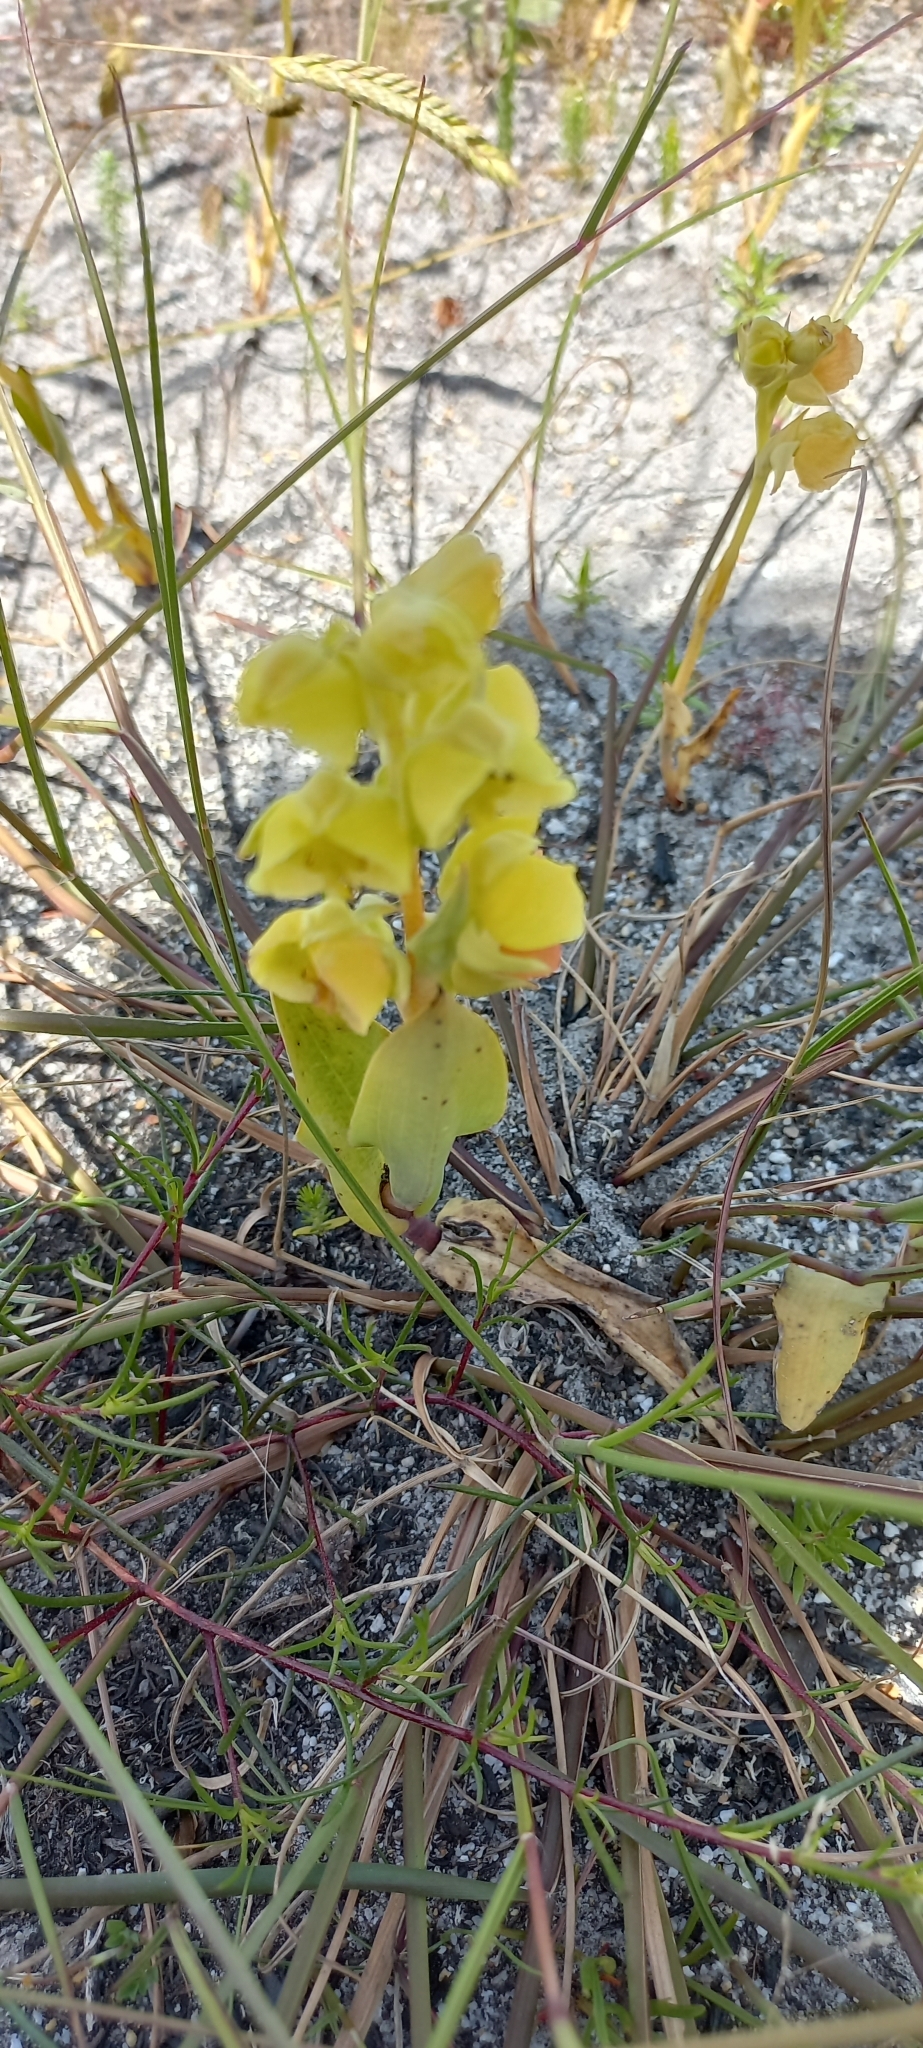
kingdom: Plantae
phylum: Tracheophyta
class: Liliopsida
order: Asparagales
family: Orchidaceae
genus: Pterygodium
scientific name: Pterygodium catholicum
